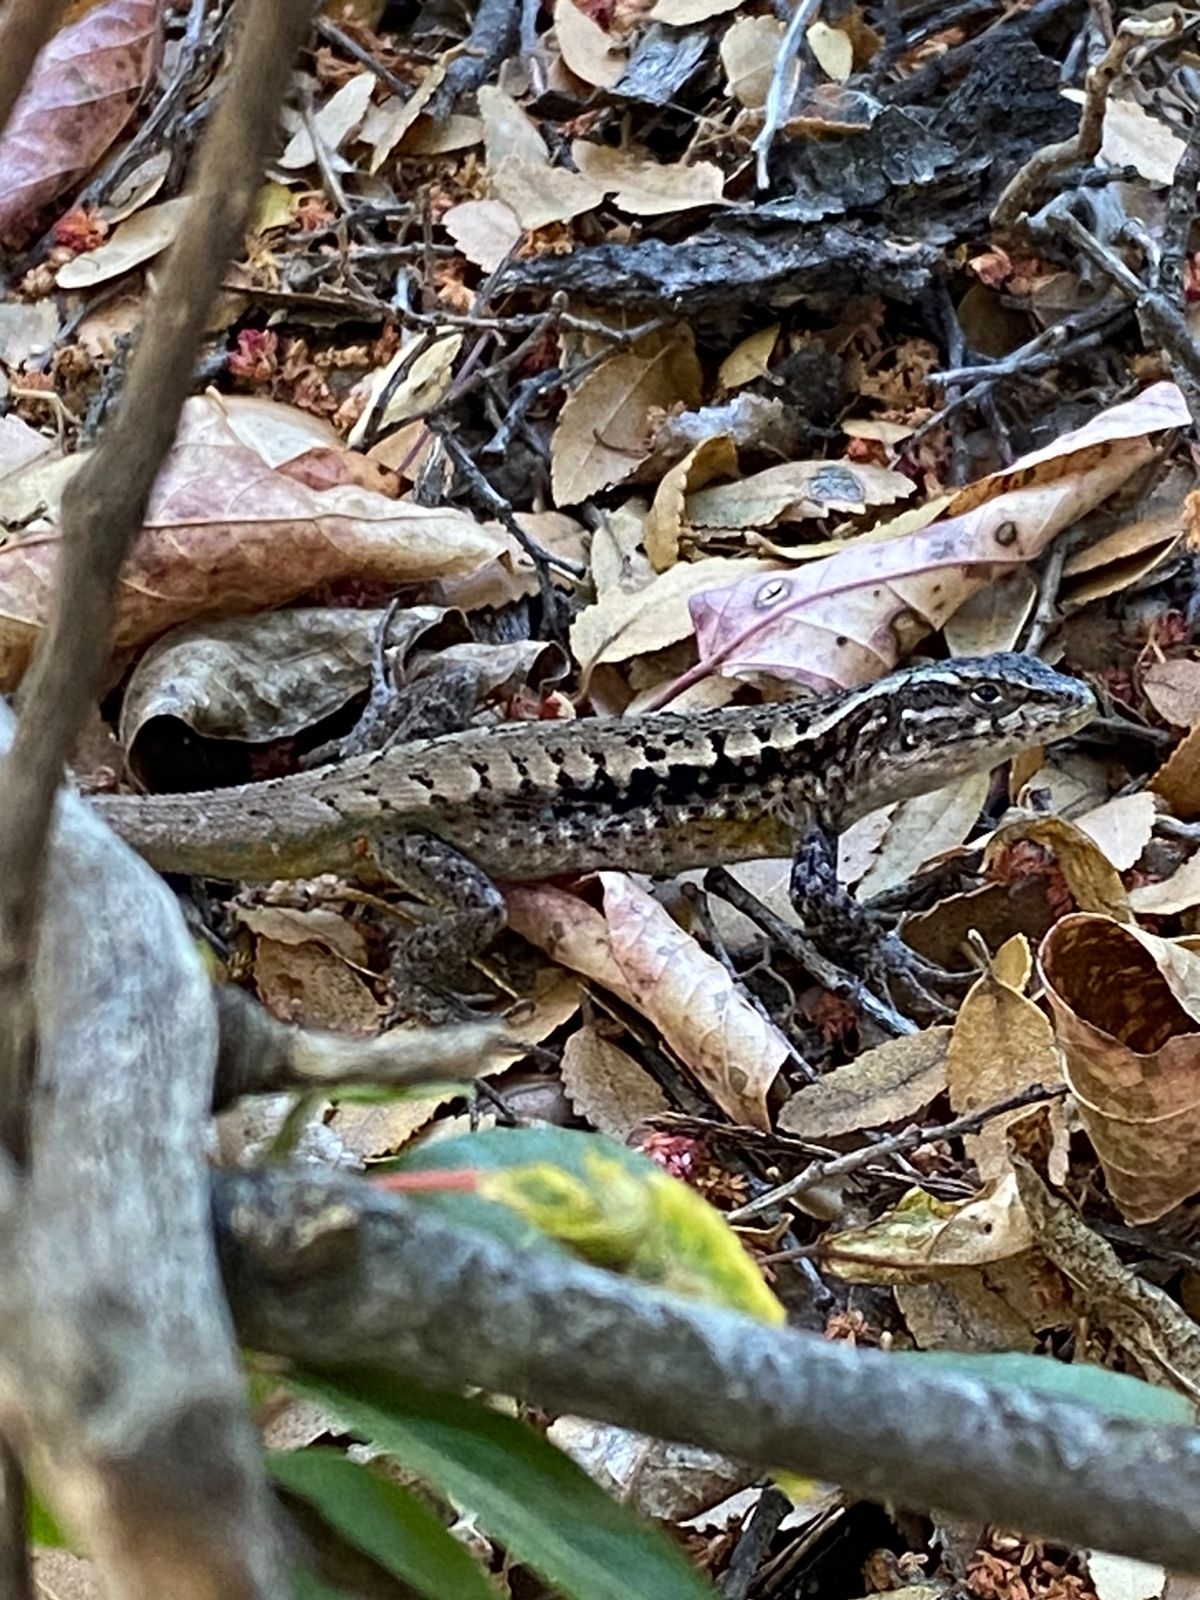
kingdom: Animalia
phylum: Chordata
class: Squamata
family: Liolaemidae
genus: Liolaemus
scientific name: Liolaemus septentrionalis
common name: Painted tree iguana
